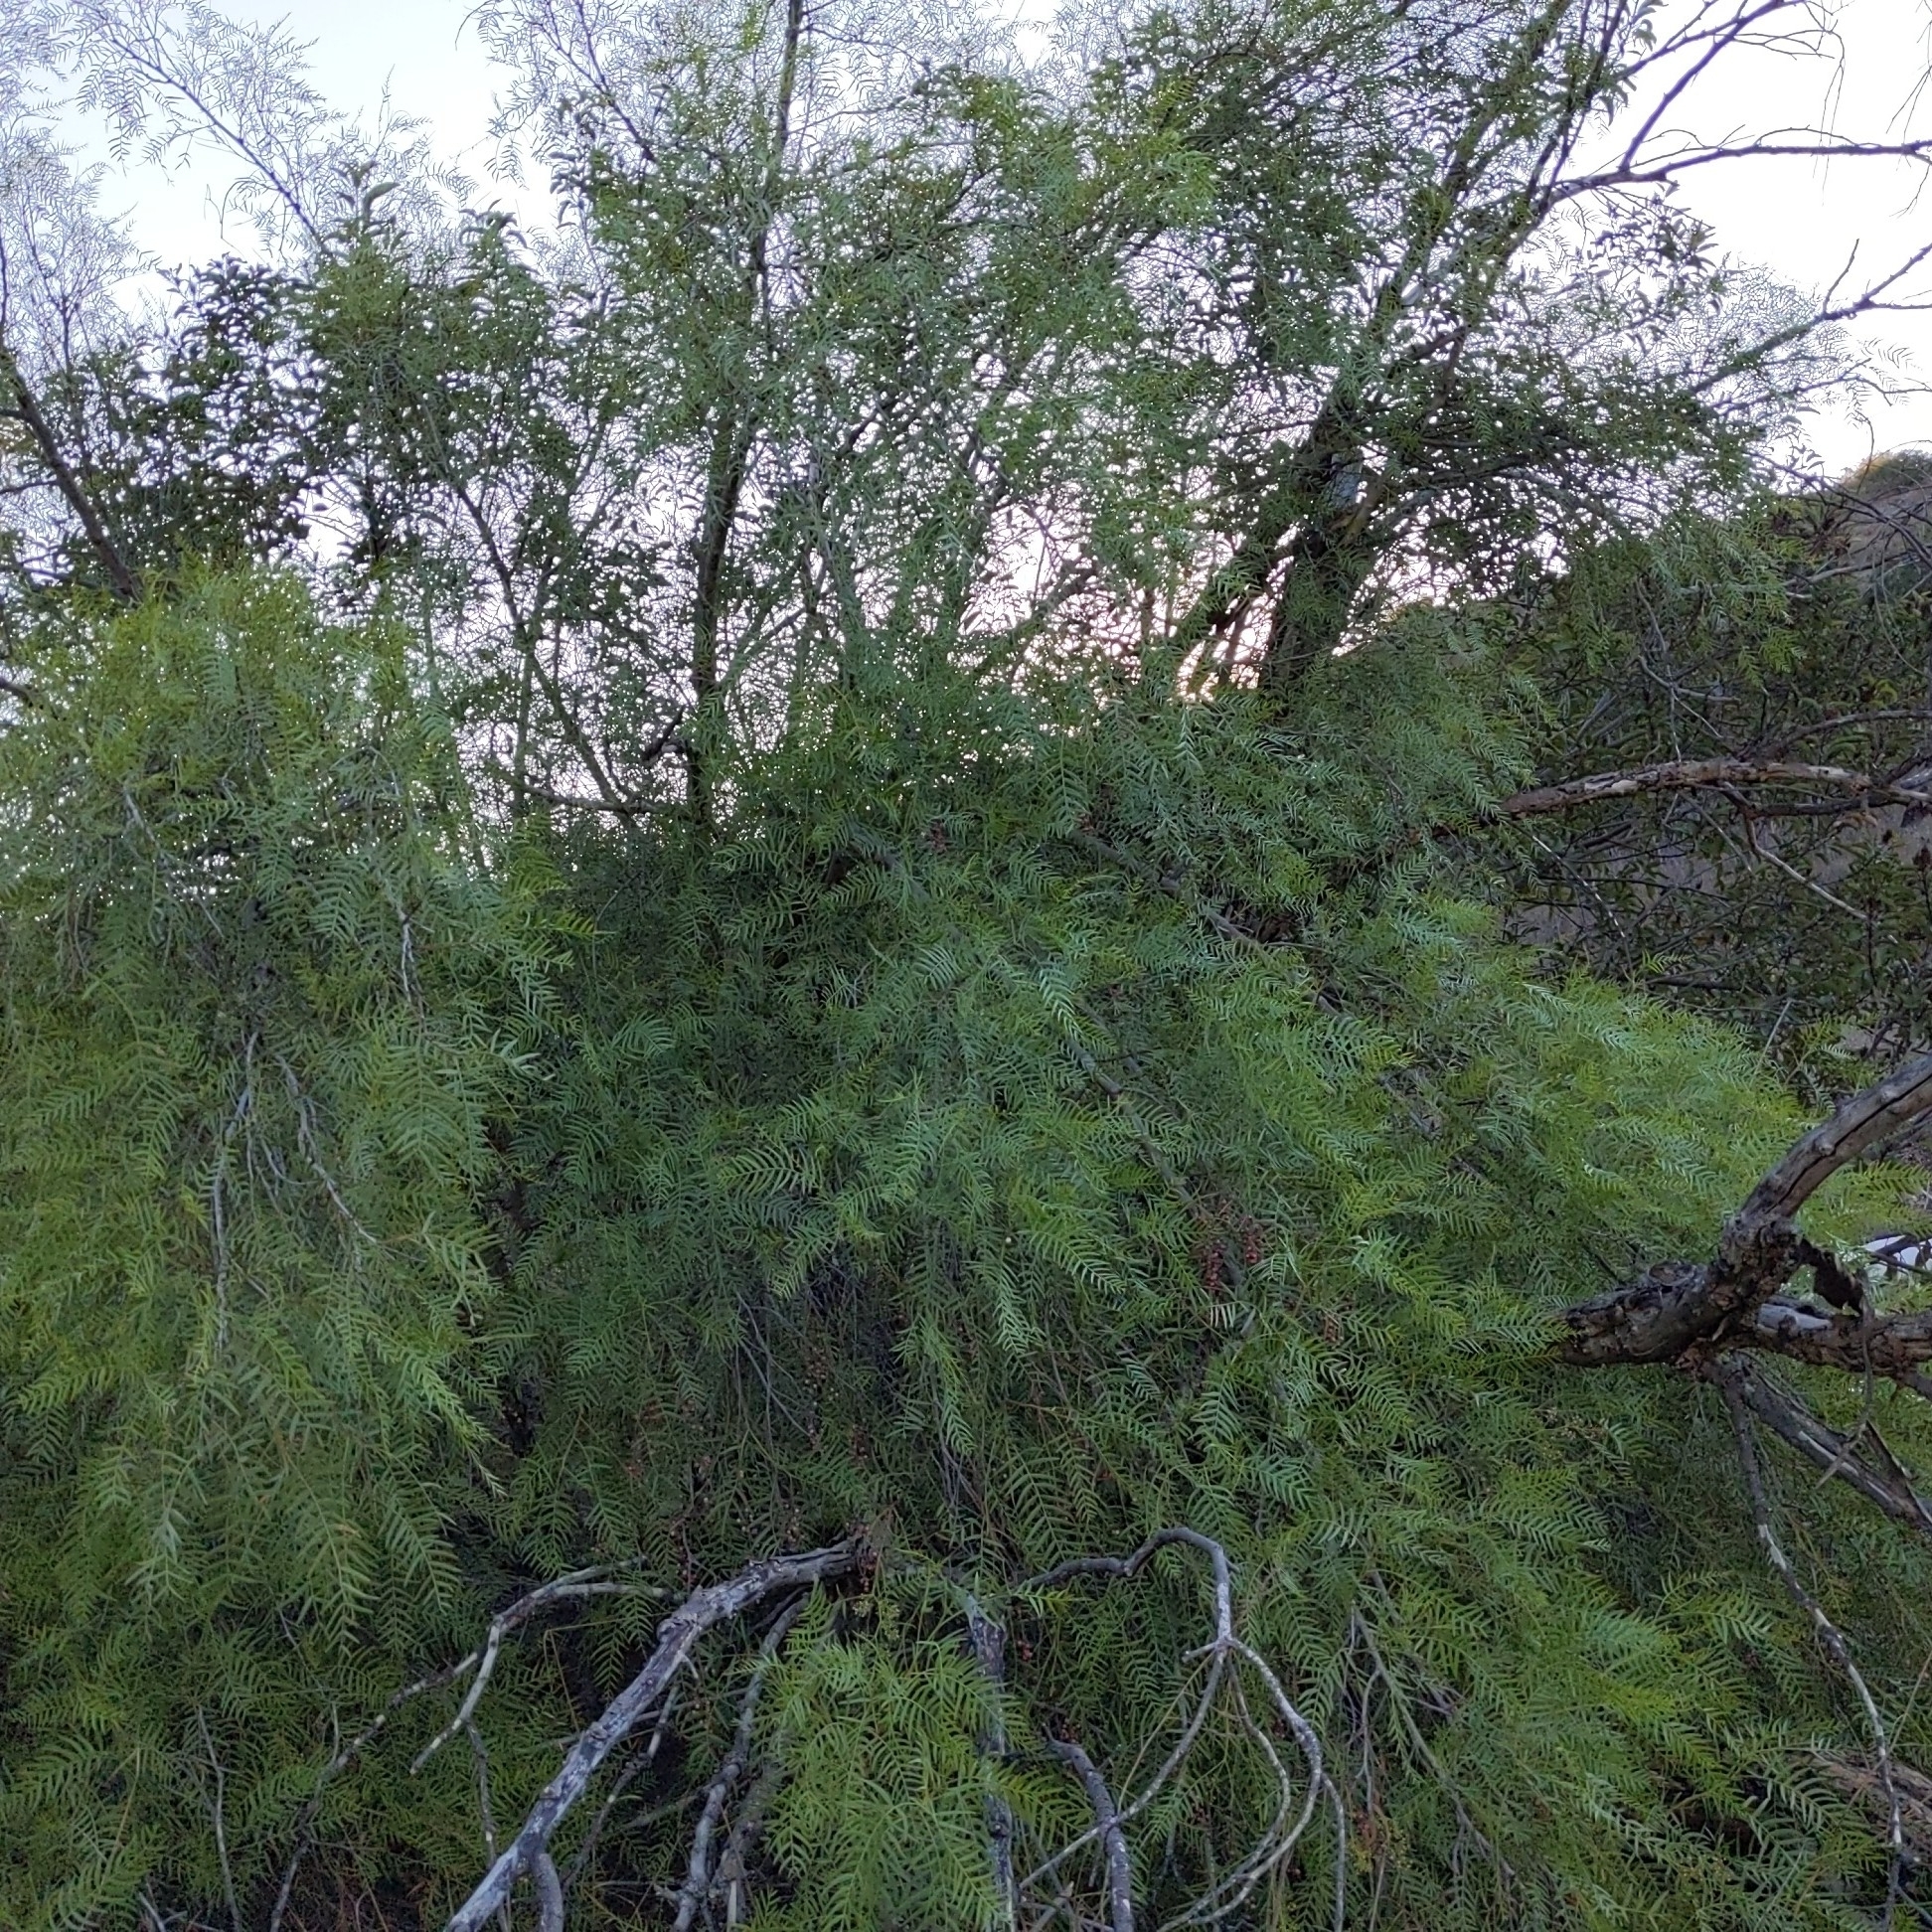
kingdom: Plantae
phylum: Tracheophyta
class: Magnoliopsida
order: Sapindales
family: Anacardiaceae
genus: Schinus
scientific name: Schinus molle
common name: Peruvian peppertree
